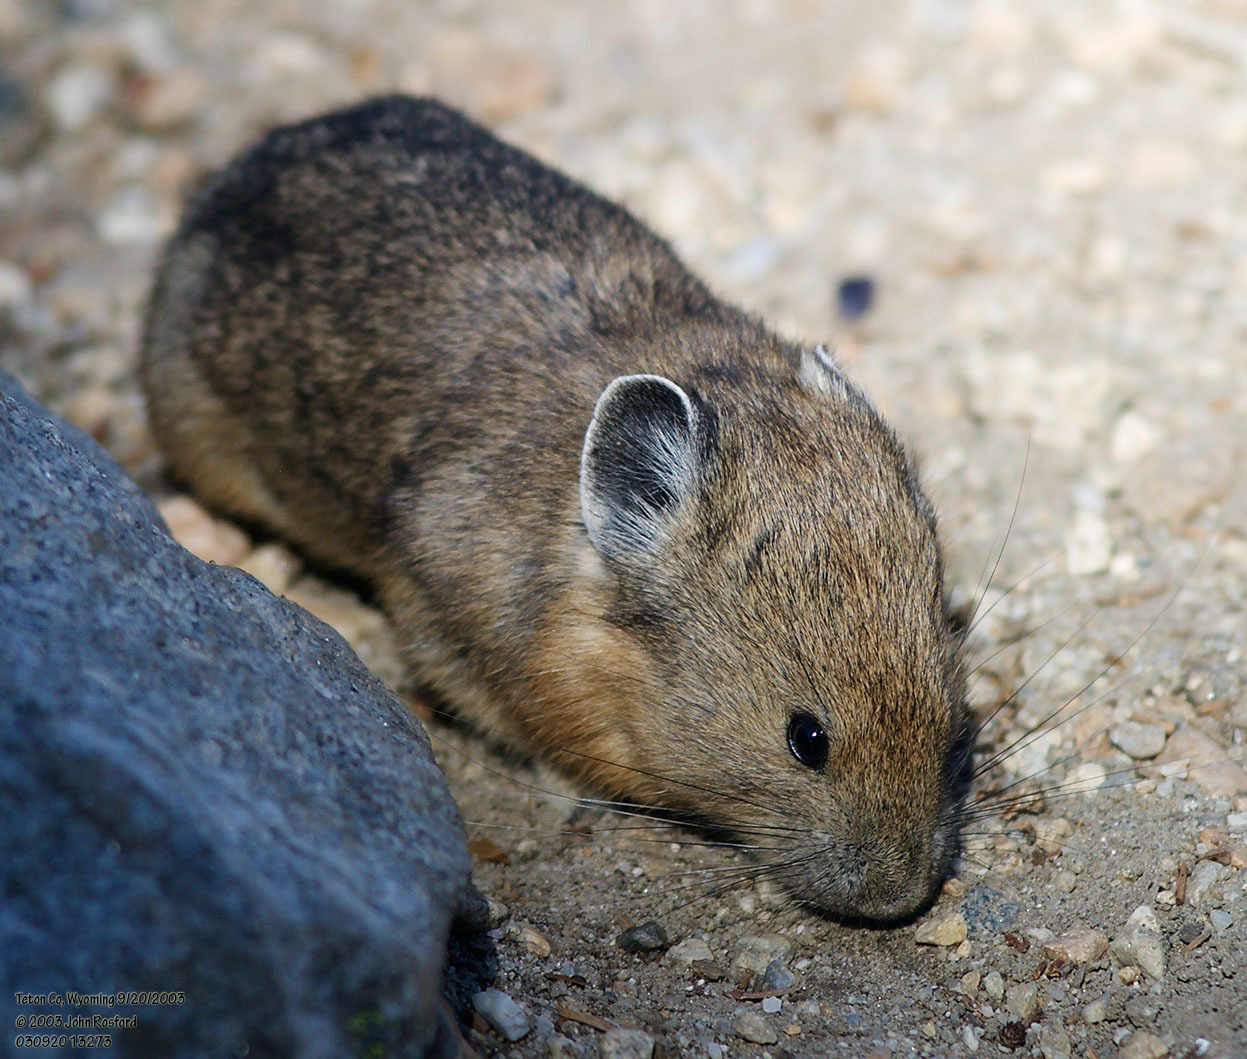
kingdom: Animalia
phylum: Chordata
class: Mammalia
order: Lagomorpha
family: Ochotonidae
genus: Ochotona
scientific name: Ochotona princeps
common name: American pika
